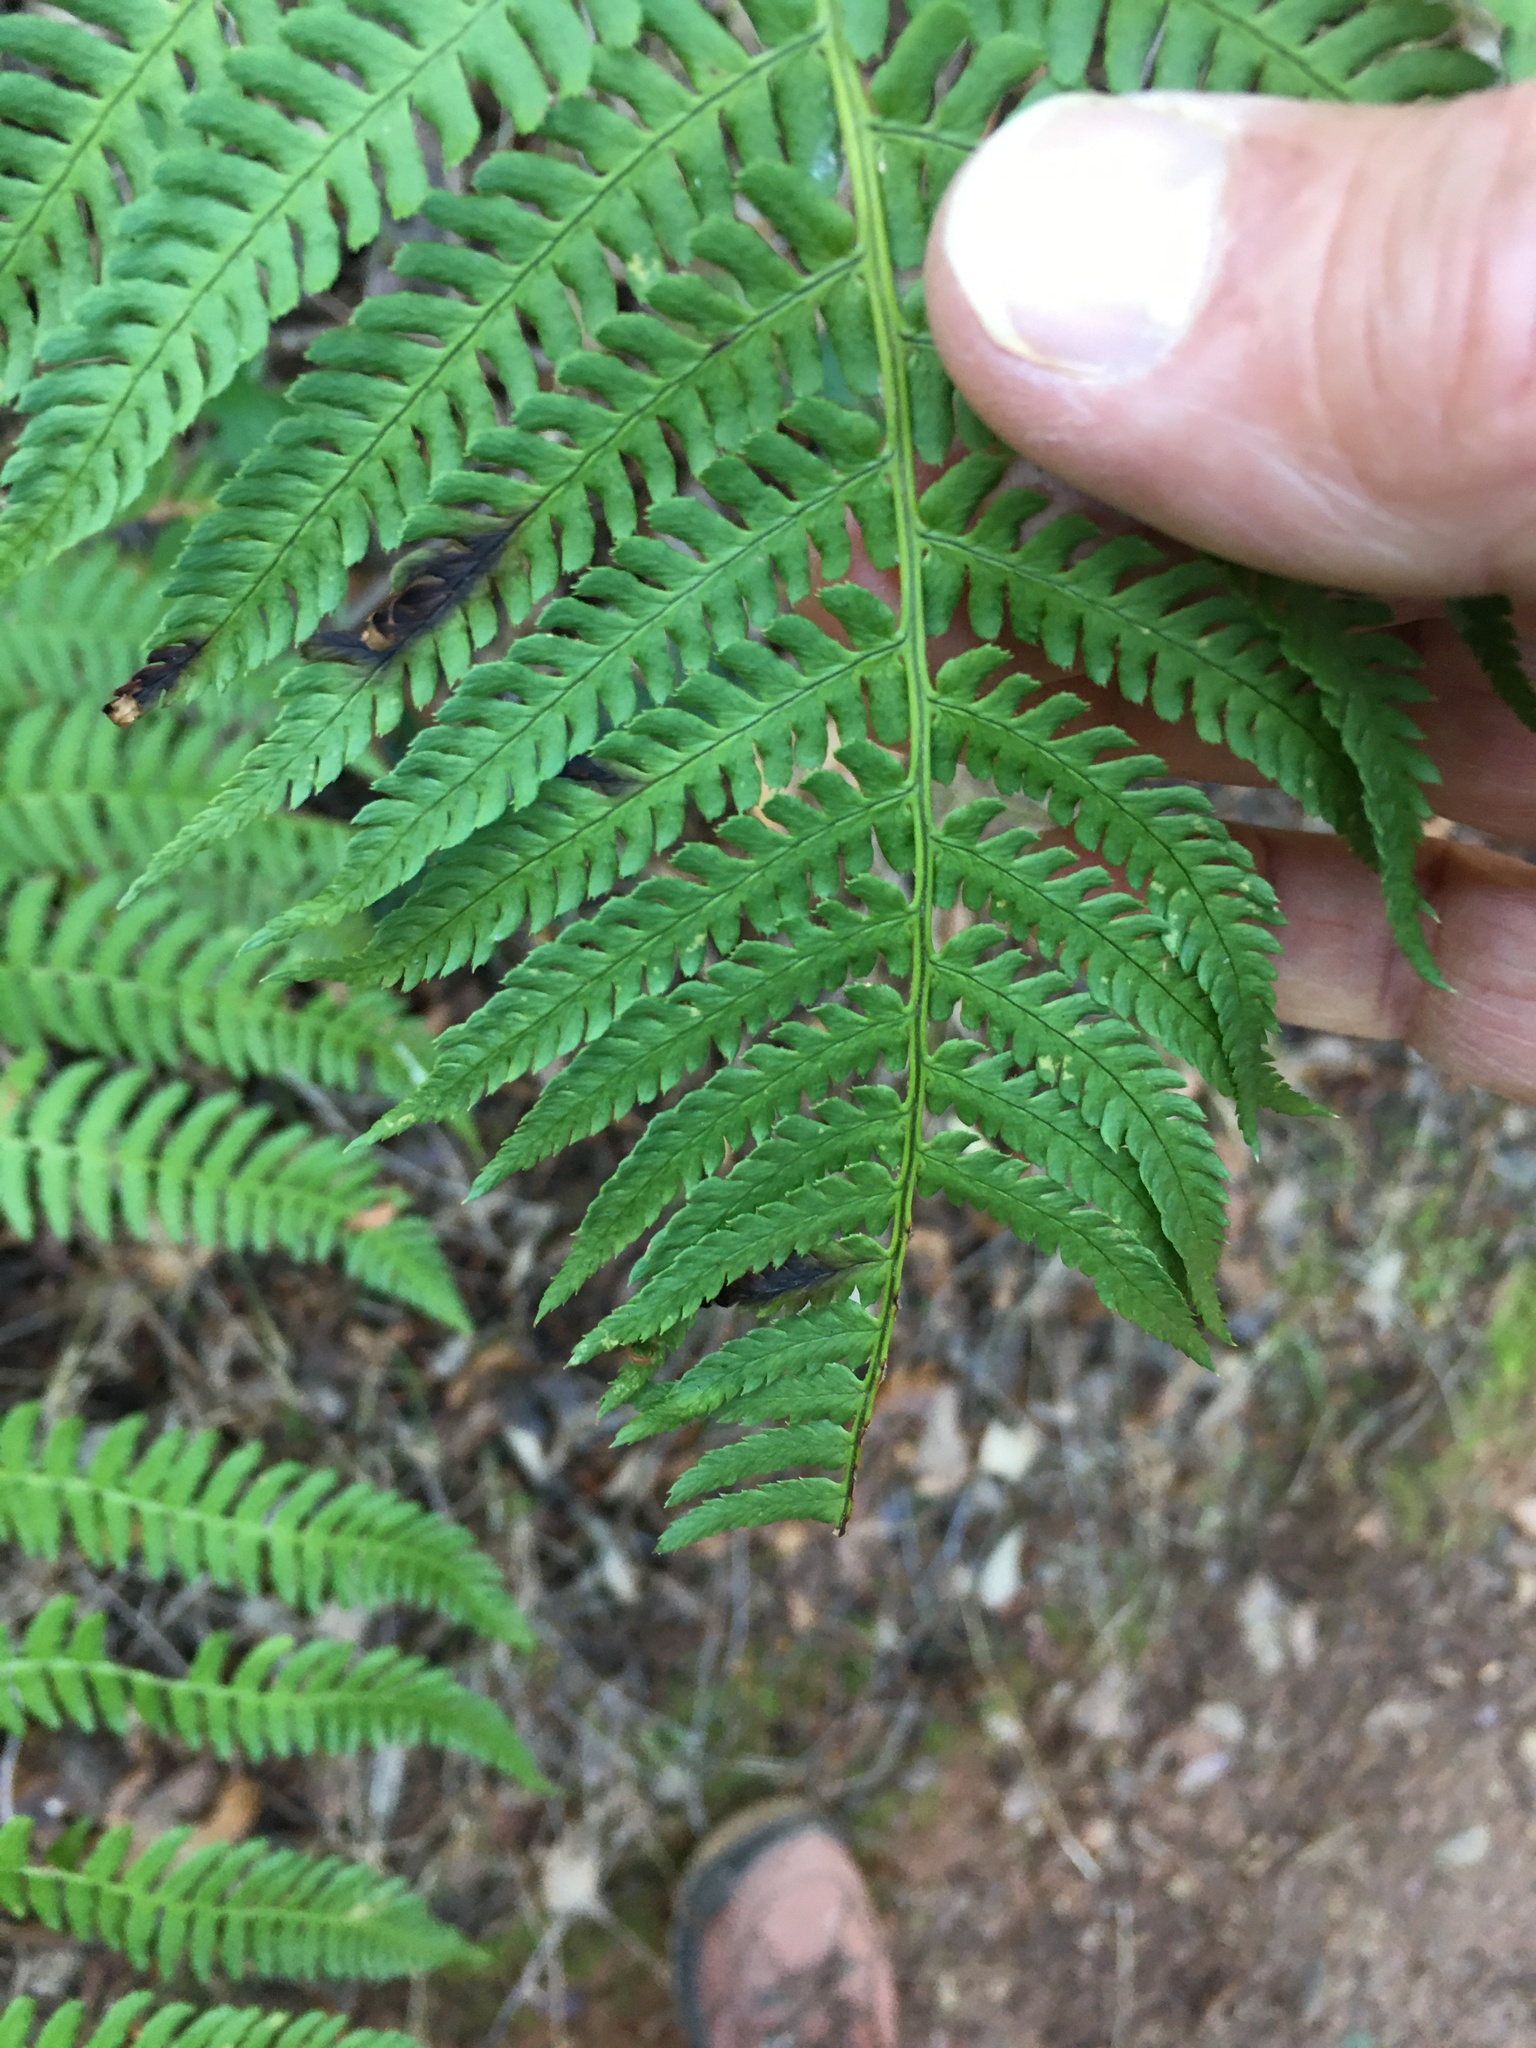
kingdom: Plantae
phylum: Tracheophyta
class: Polypodiopsida
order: Polypodiales
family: Dryopteridaceae
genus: Dryopteris
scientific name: Dryopteris arguta
